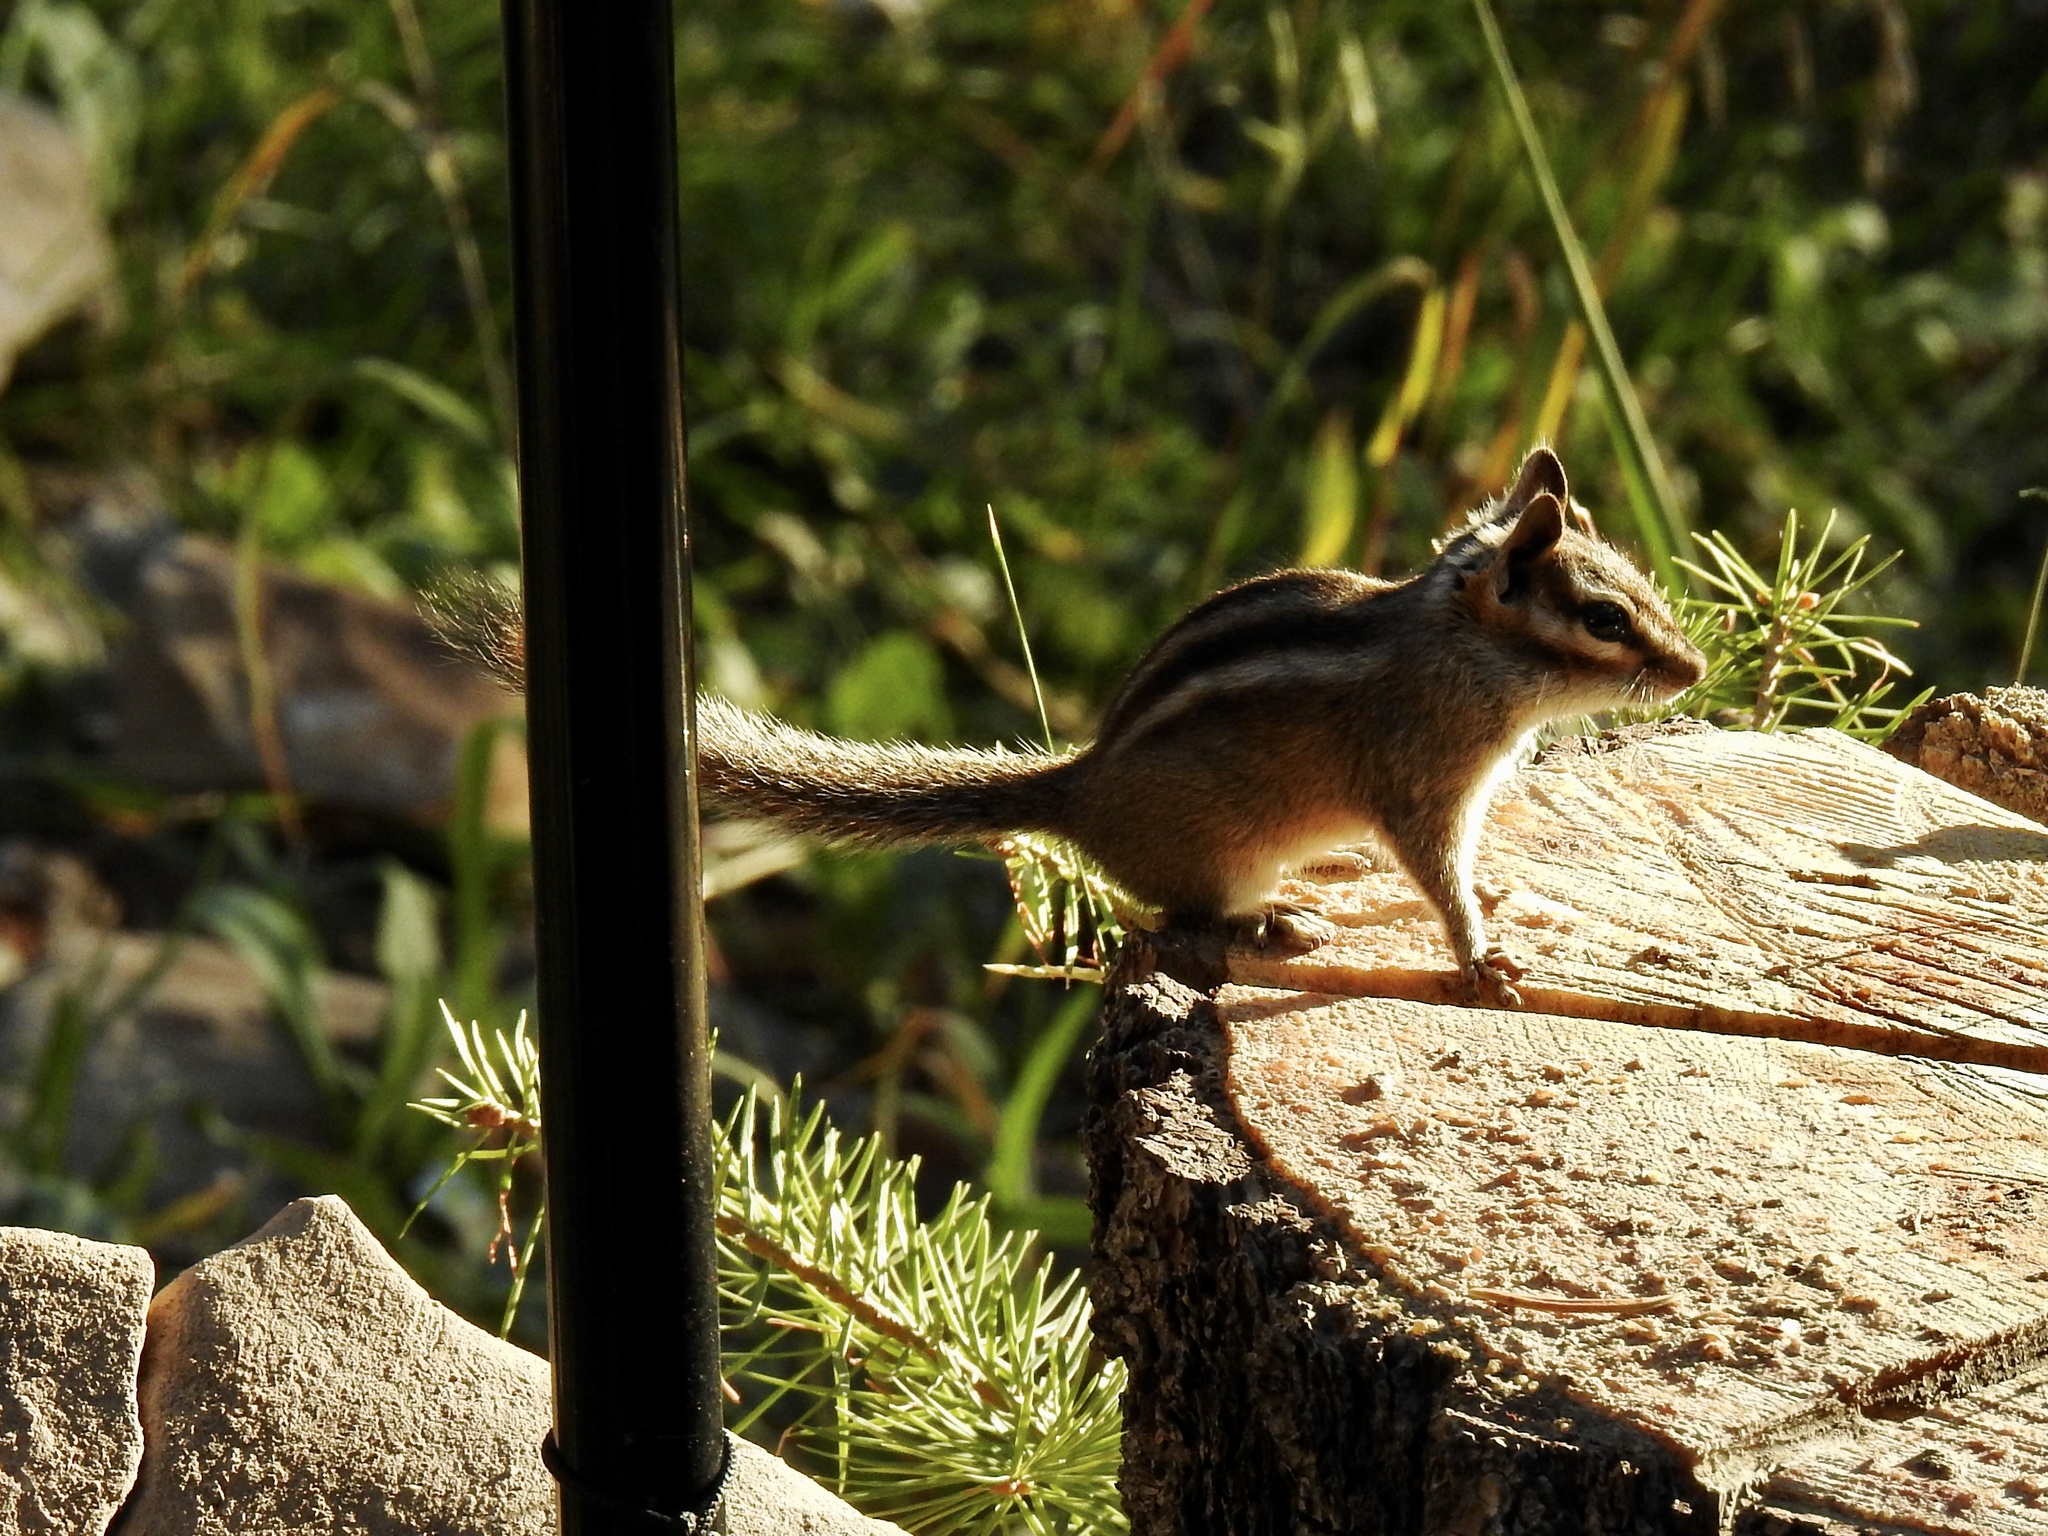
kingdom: Animalia
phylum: Chordata
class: Mammalia
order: Rodentia
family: Sciuridae
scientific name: Sciuridae
